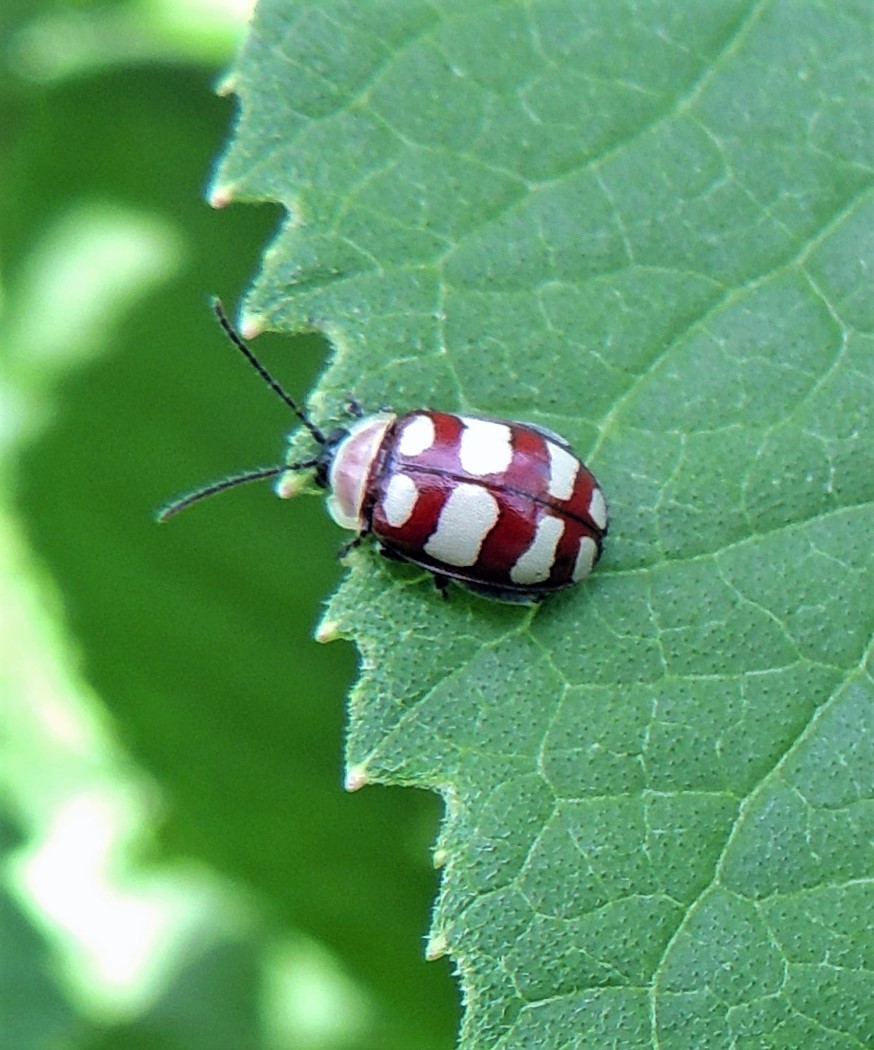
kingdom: Animalia
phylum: Arthropoda
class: Insecta
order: Coleoptera
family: Chrysomelidae
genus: Alagoasa
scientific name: Alagoasa decemguttata
